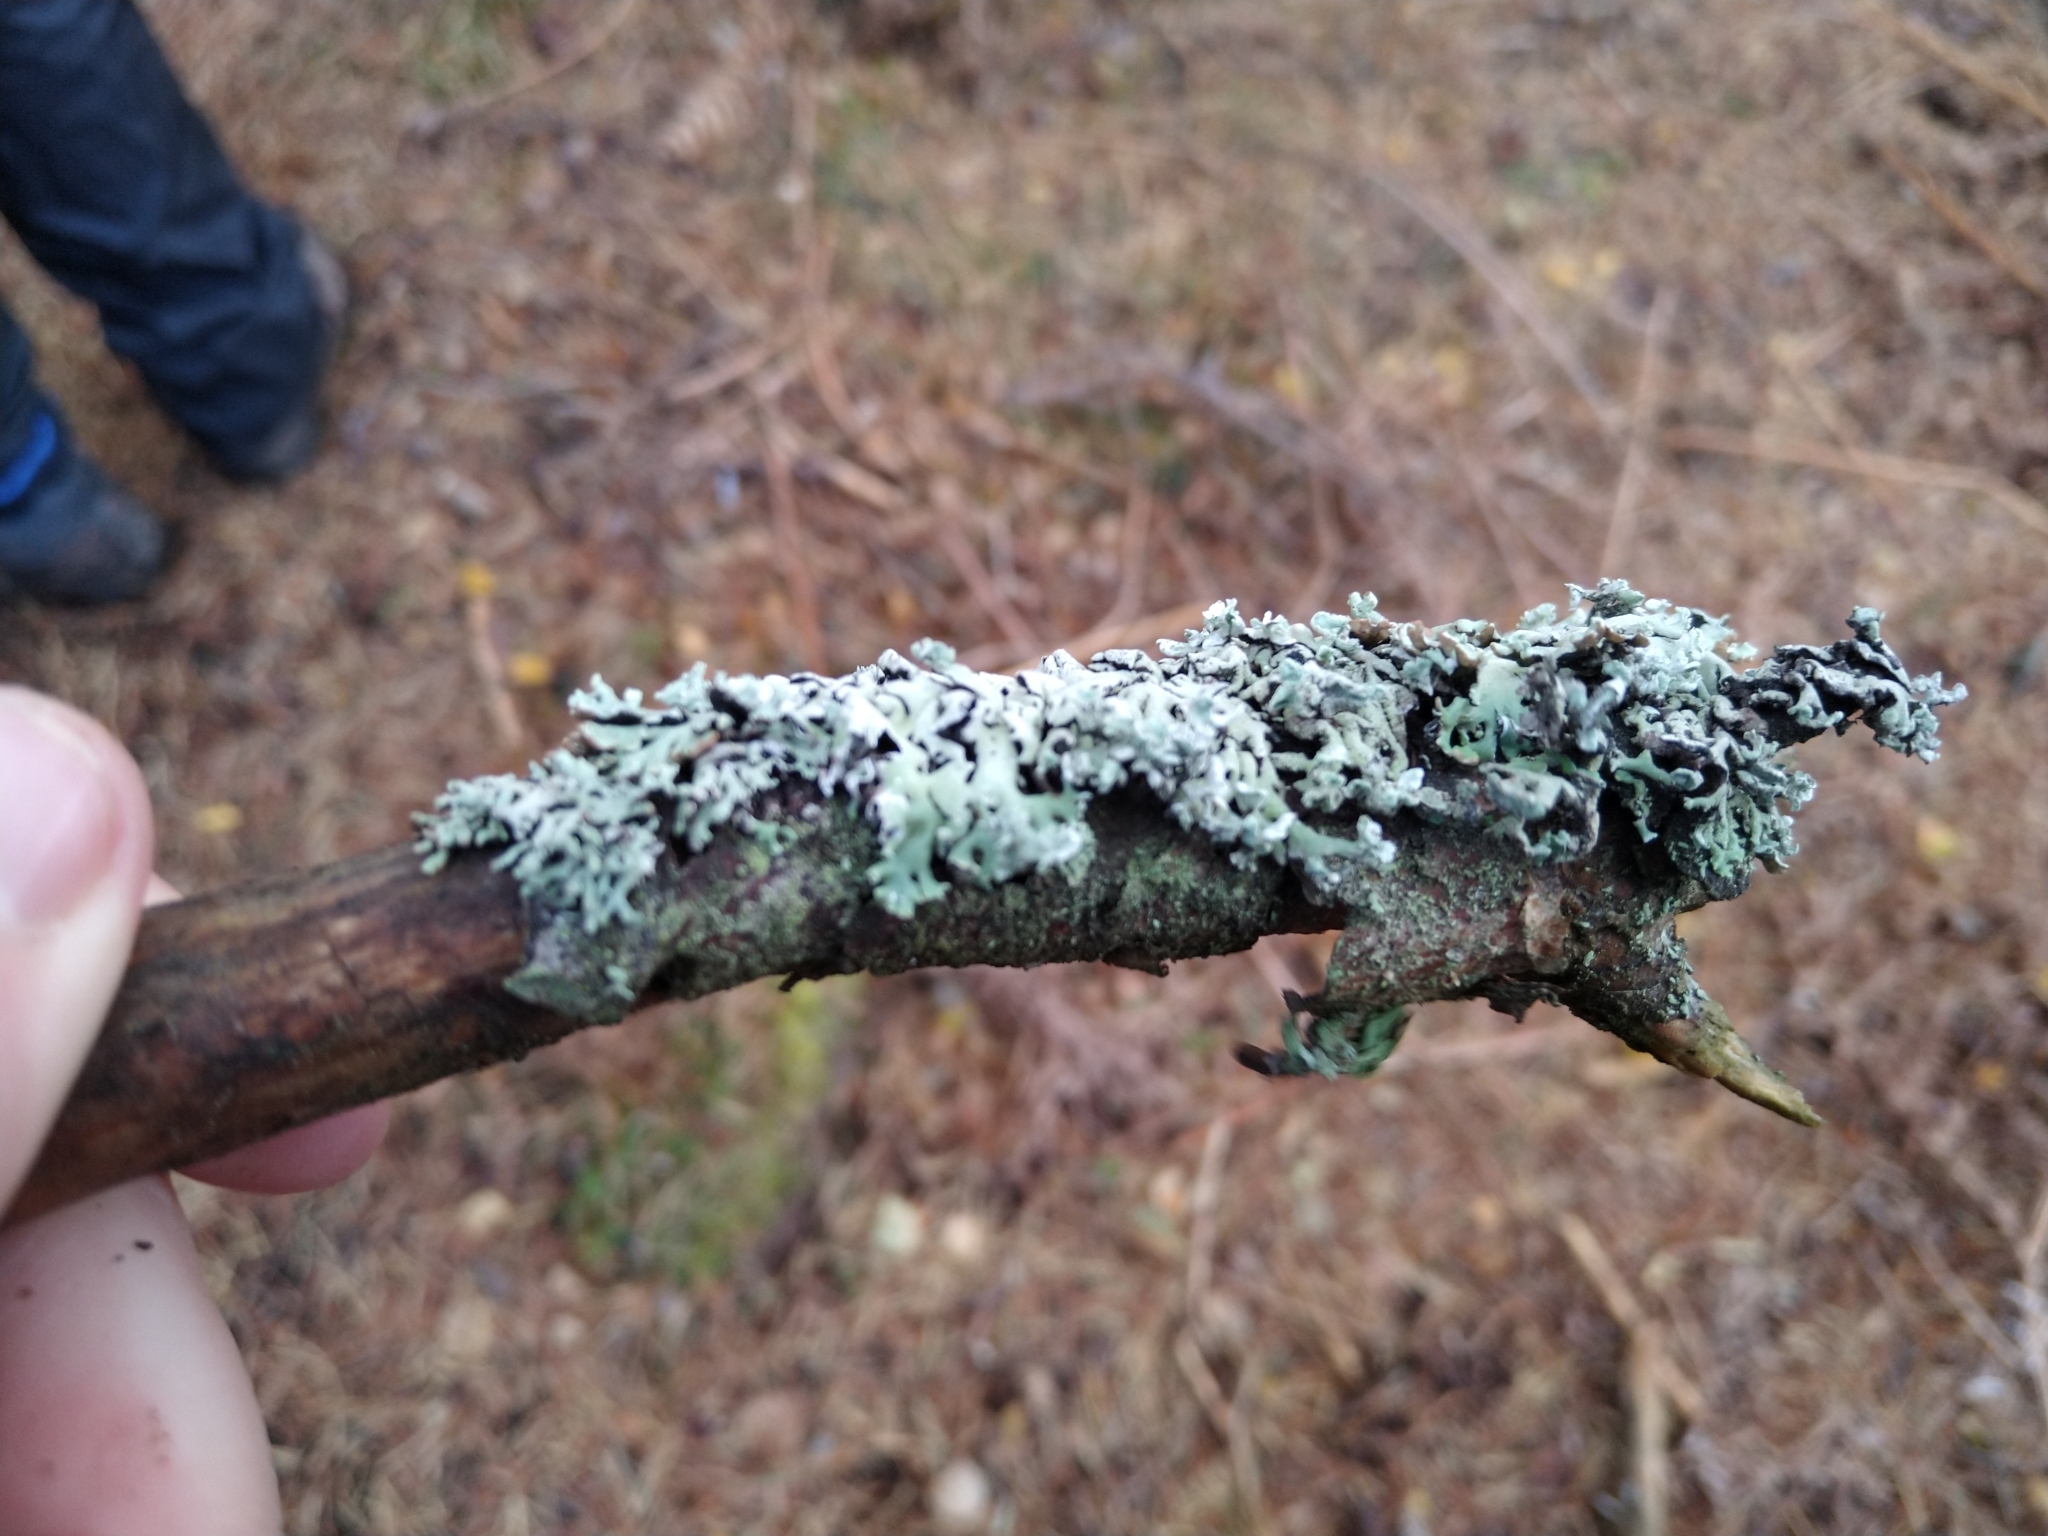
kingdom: Fungi
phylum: Ascomycota
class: Lecanoromycetes
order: Lecanorales
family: Parmeliaceae
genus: Hypogymnia
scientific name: Hypogymnia physodes
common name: Dark crottle
